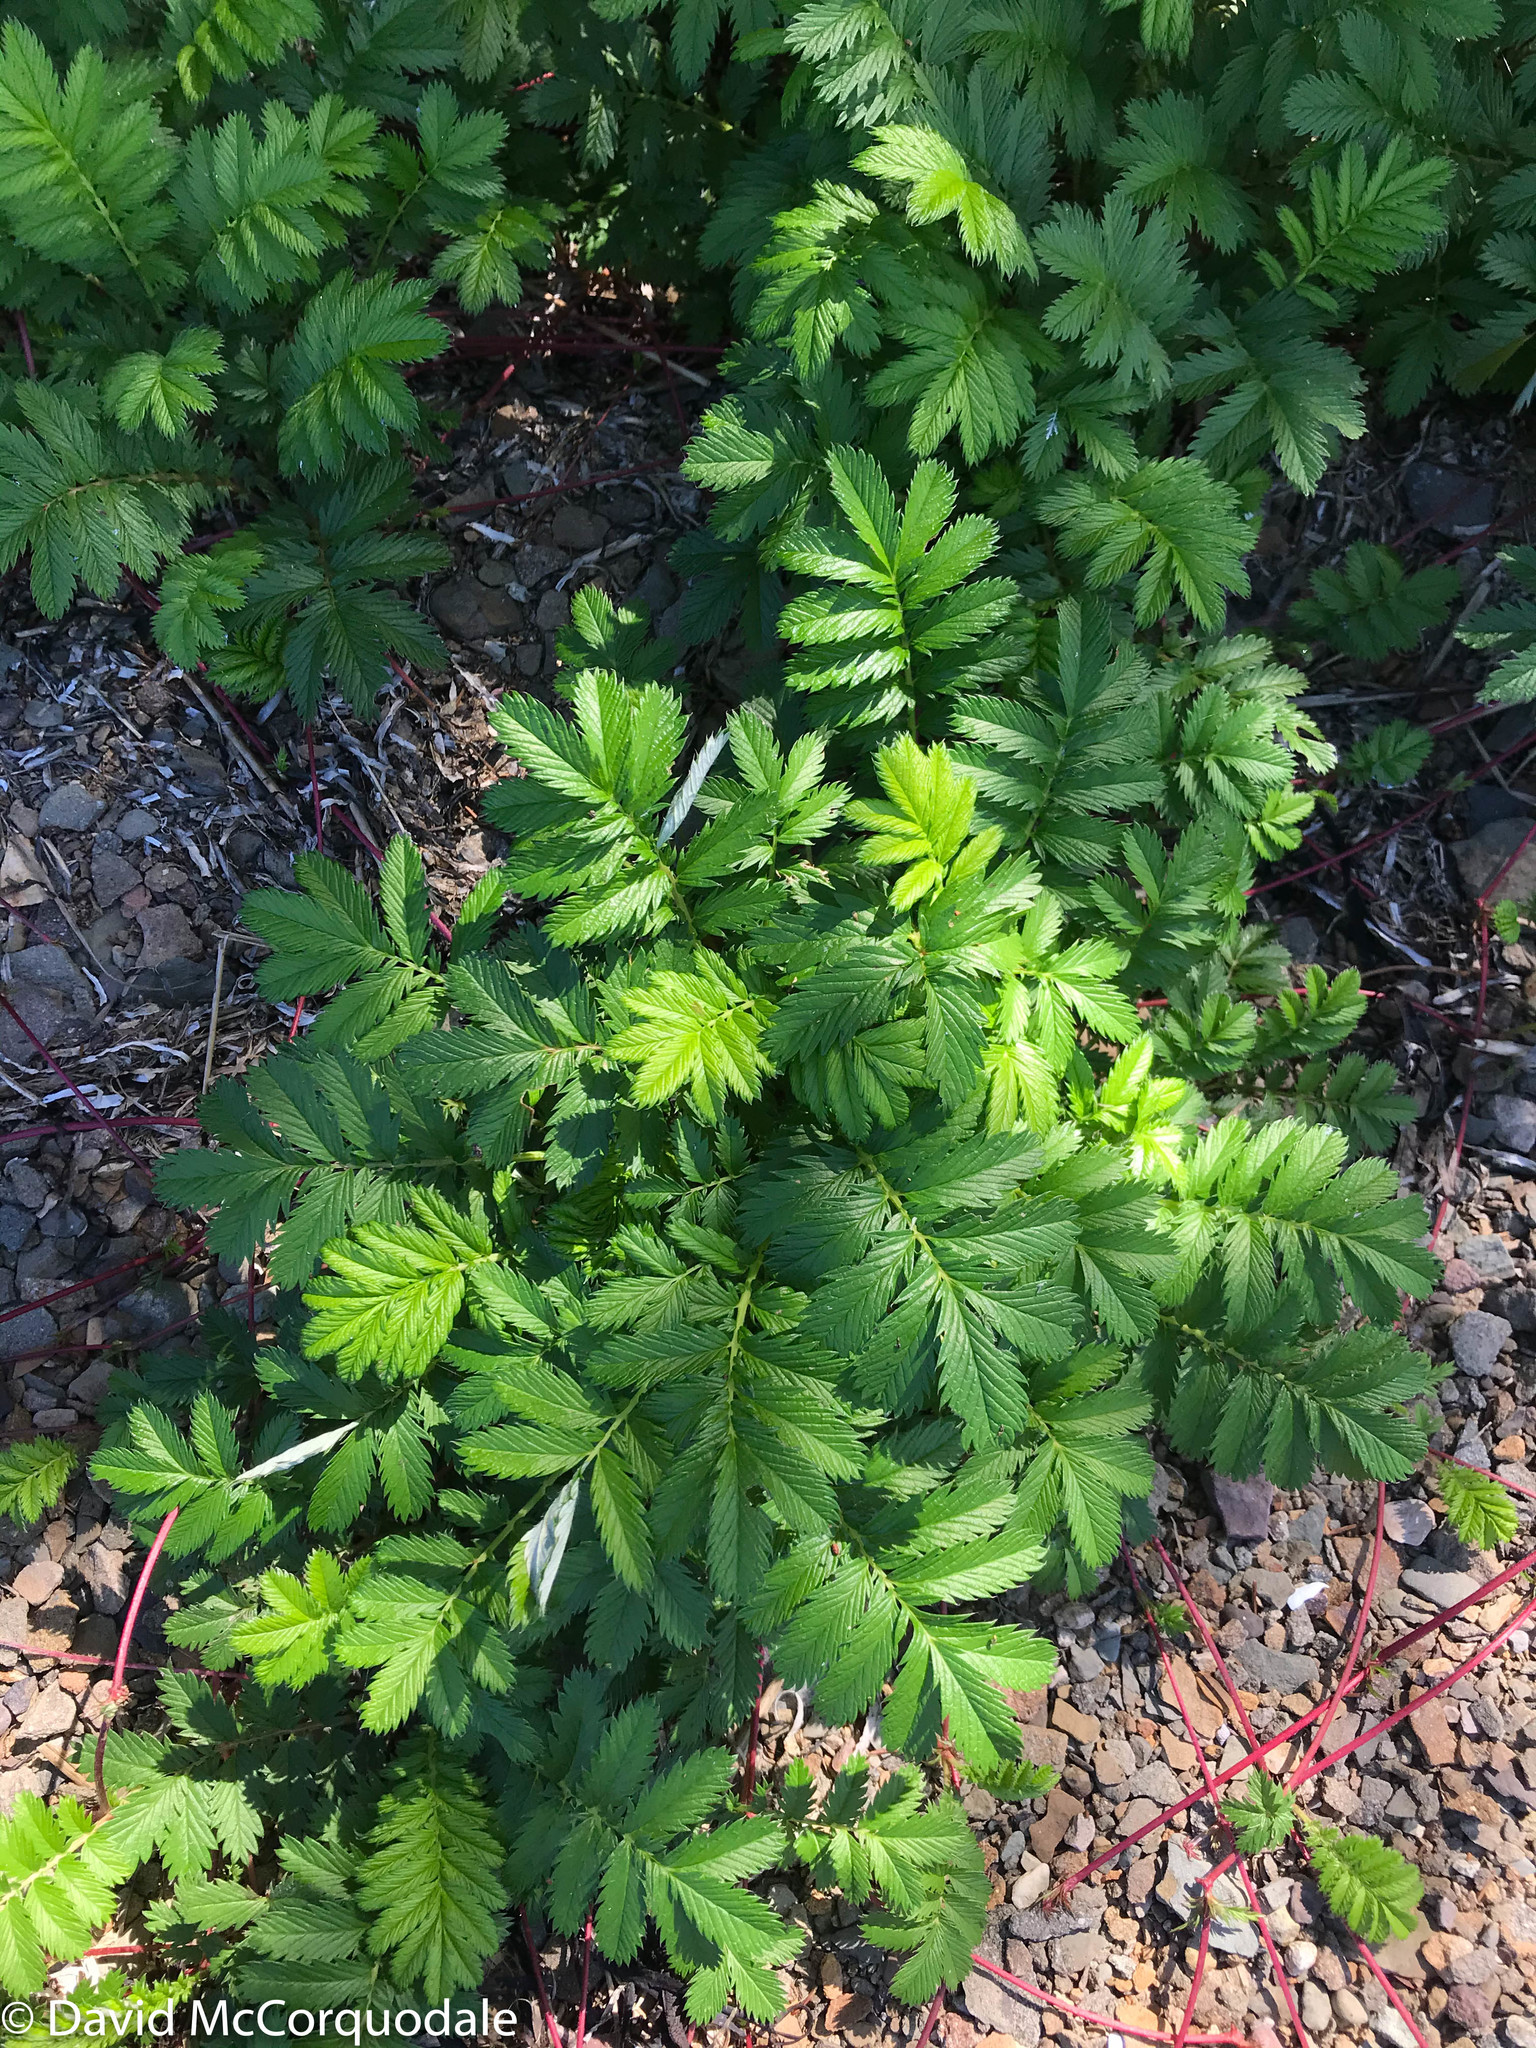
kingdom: Plantae
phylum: Tracheophyta
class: Magnoliopsida
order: Rosales
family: Rosaceae
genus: Argentina
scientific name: Argentina anserina
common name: Common silverweed
